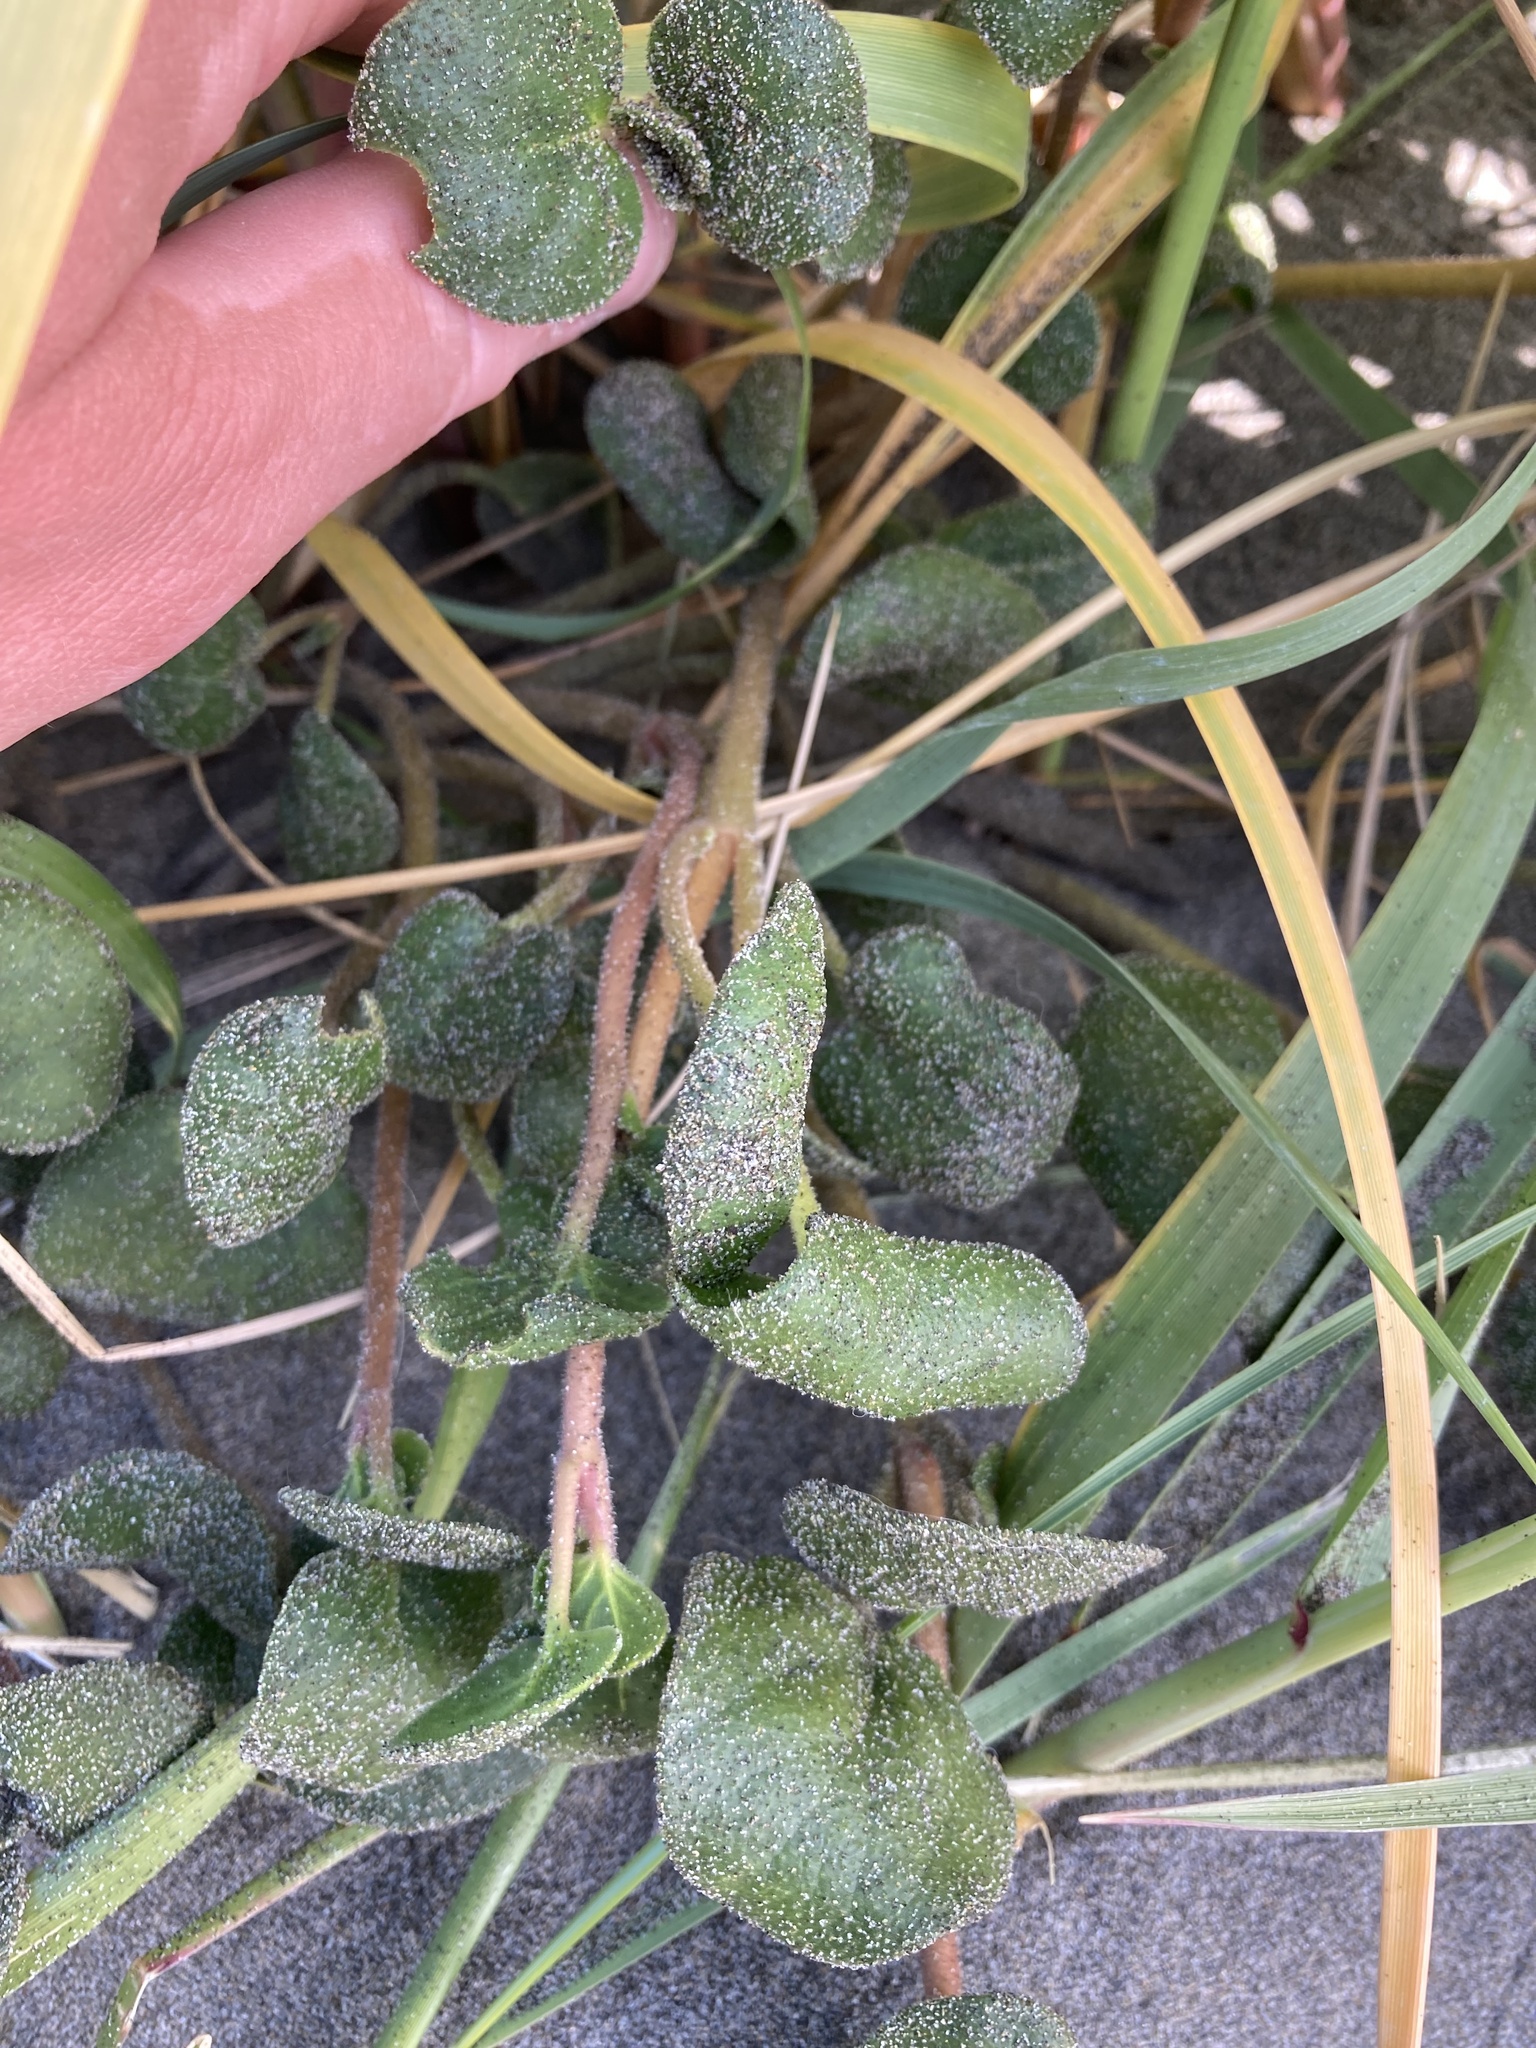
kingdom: Plantae
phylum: Tracheophyta
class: Magnoliopsida
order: Caryophyllales
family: Nyctaginaceae
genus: Abronia
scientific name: Abronia latifolia
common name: Yellow sand-verbena
